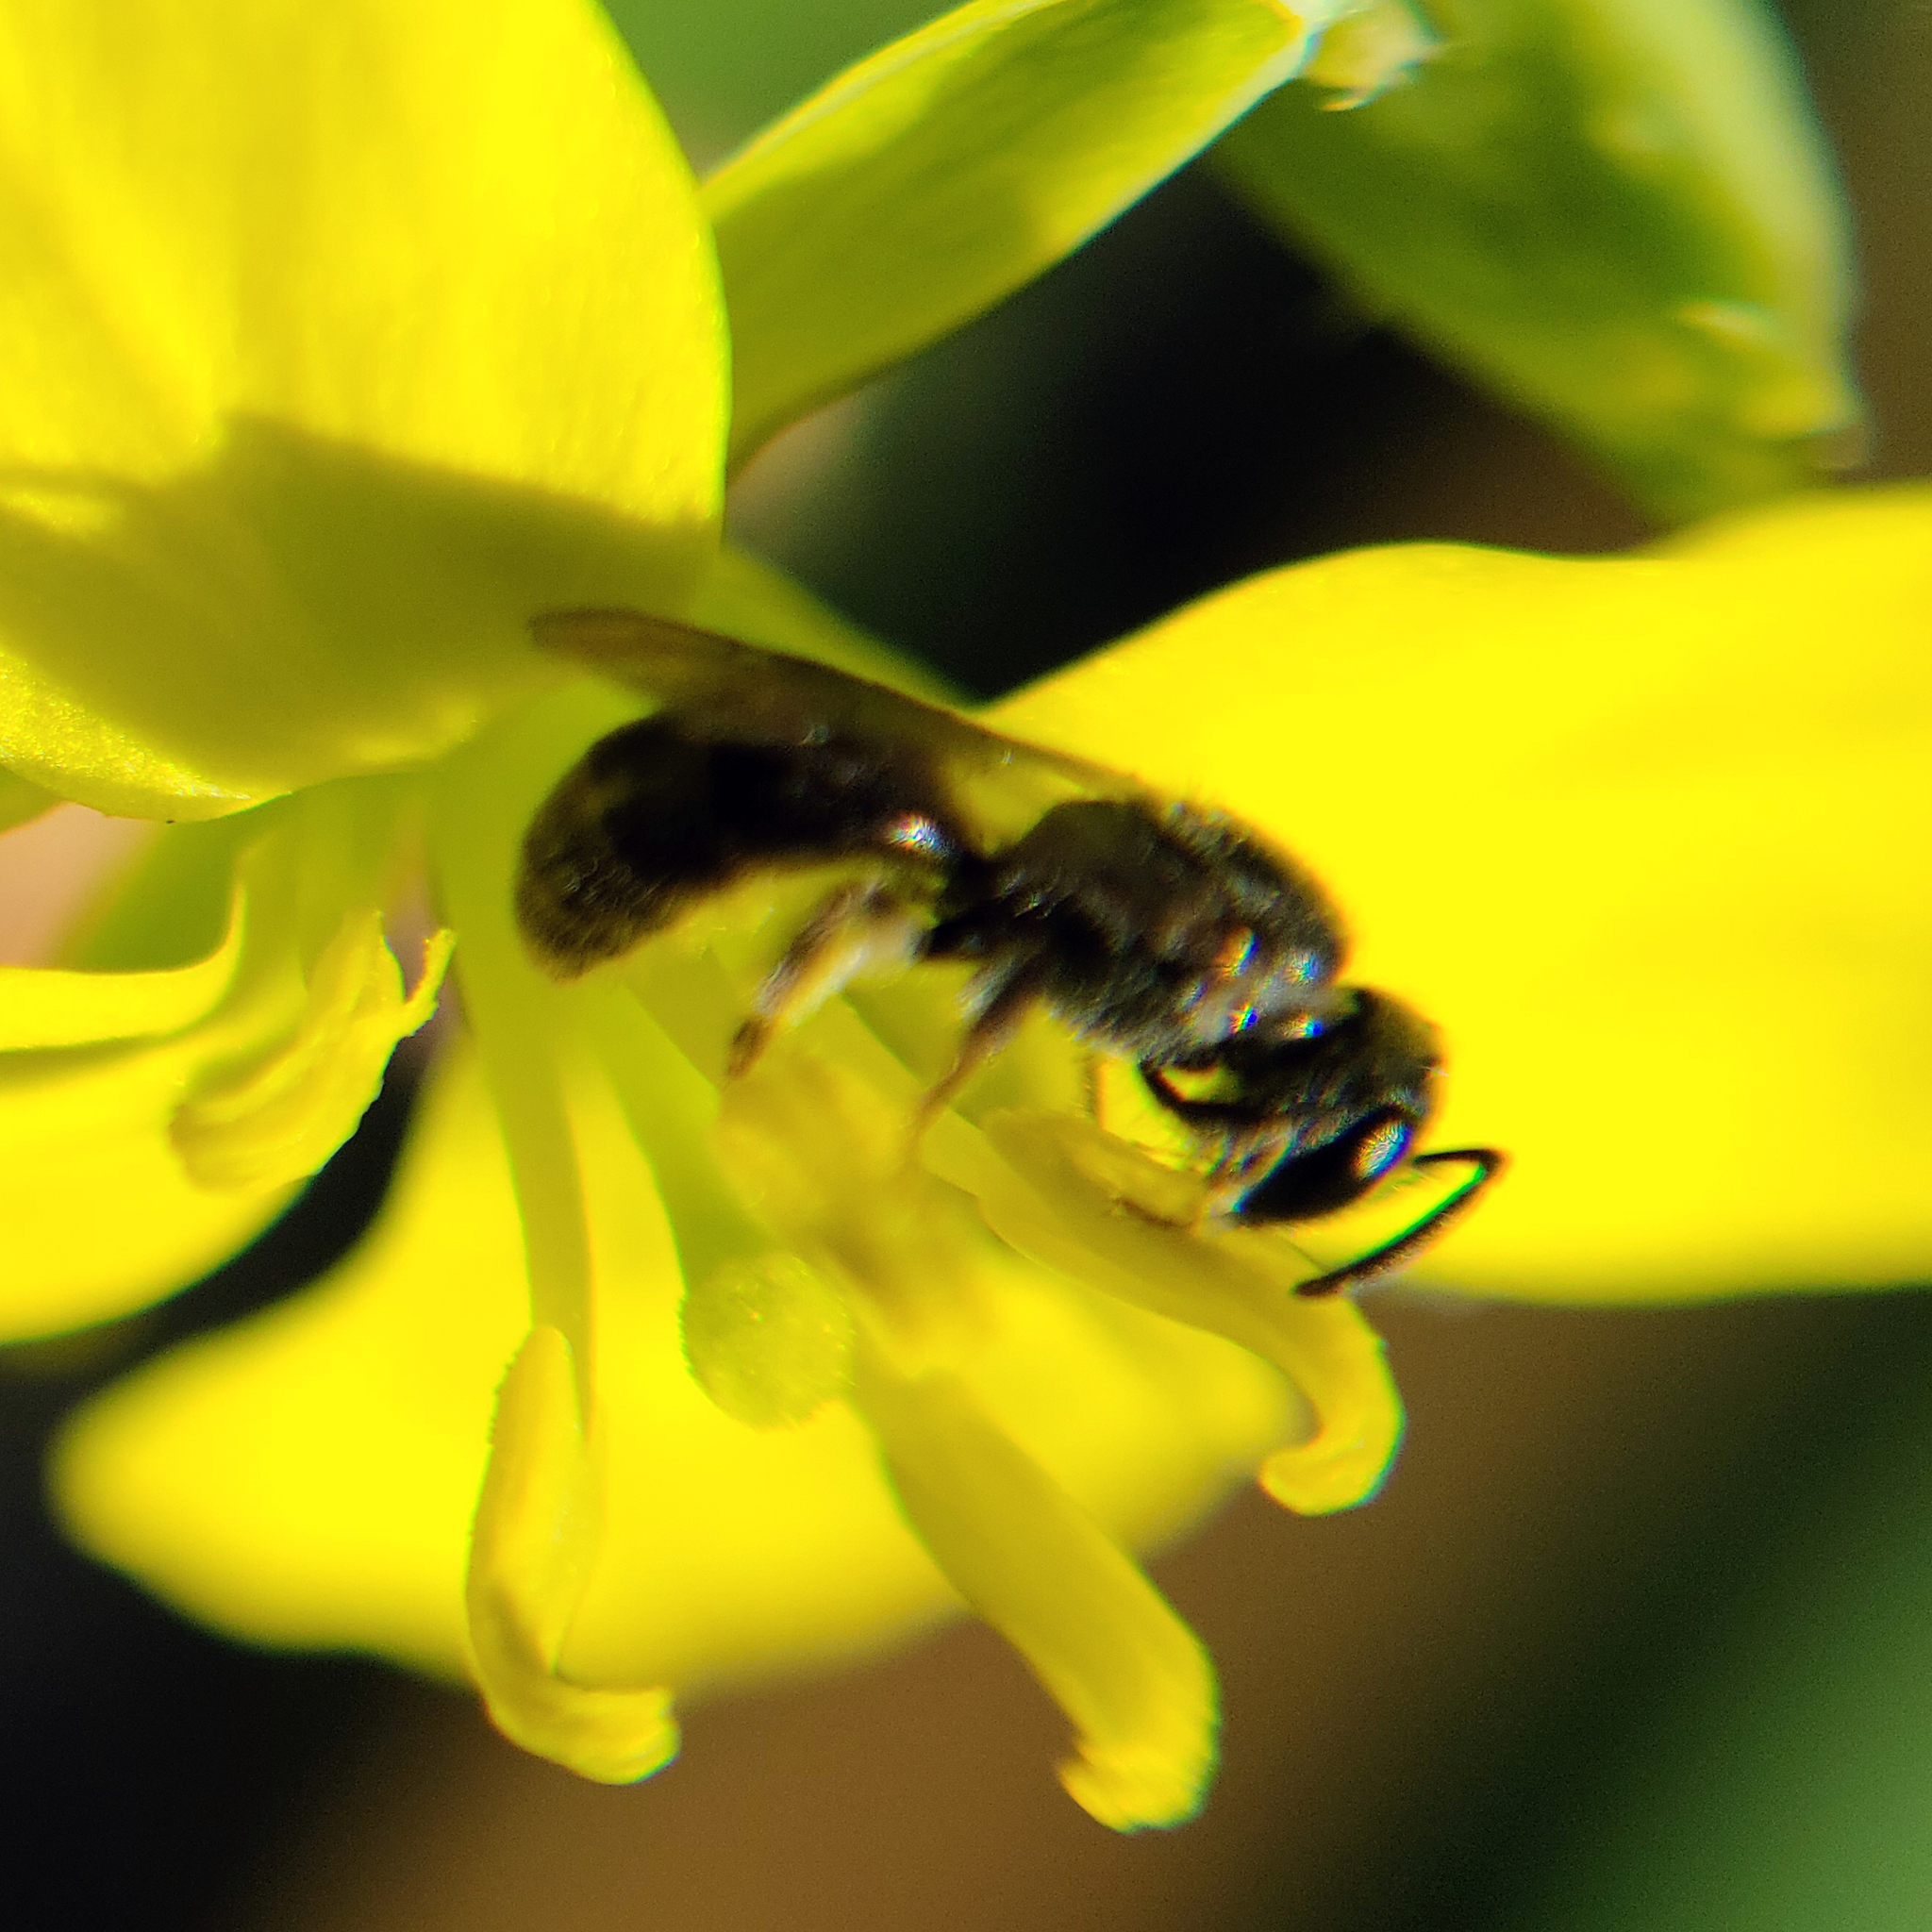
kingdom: Animalia
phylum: Arthropoda
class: Insecta
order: Hymenoptera
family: Halictidae
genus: Dialictus
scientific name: Dialictus
